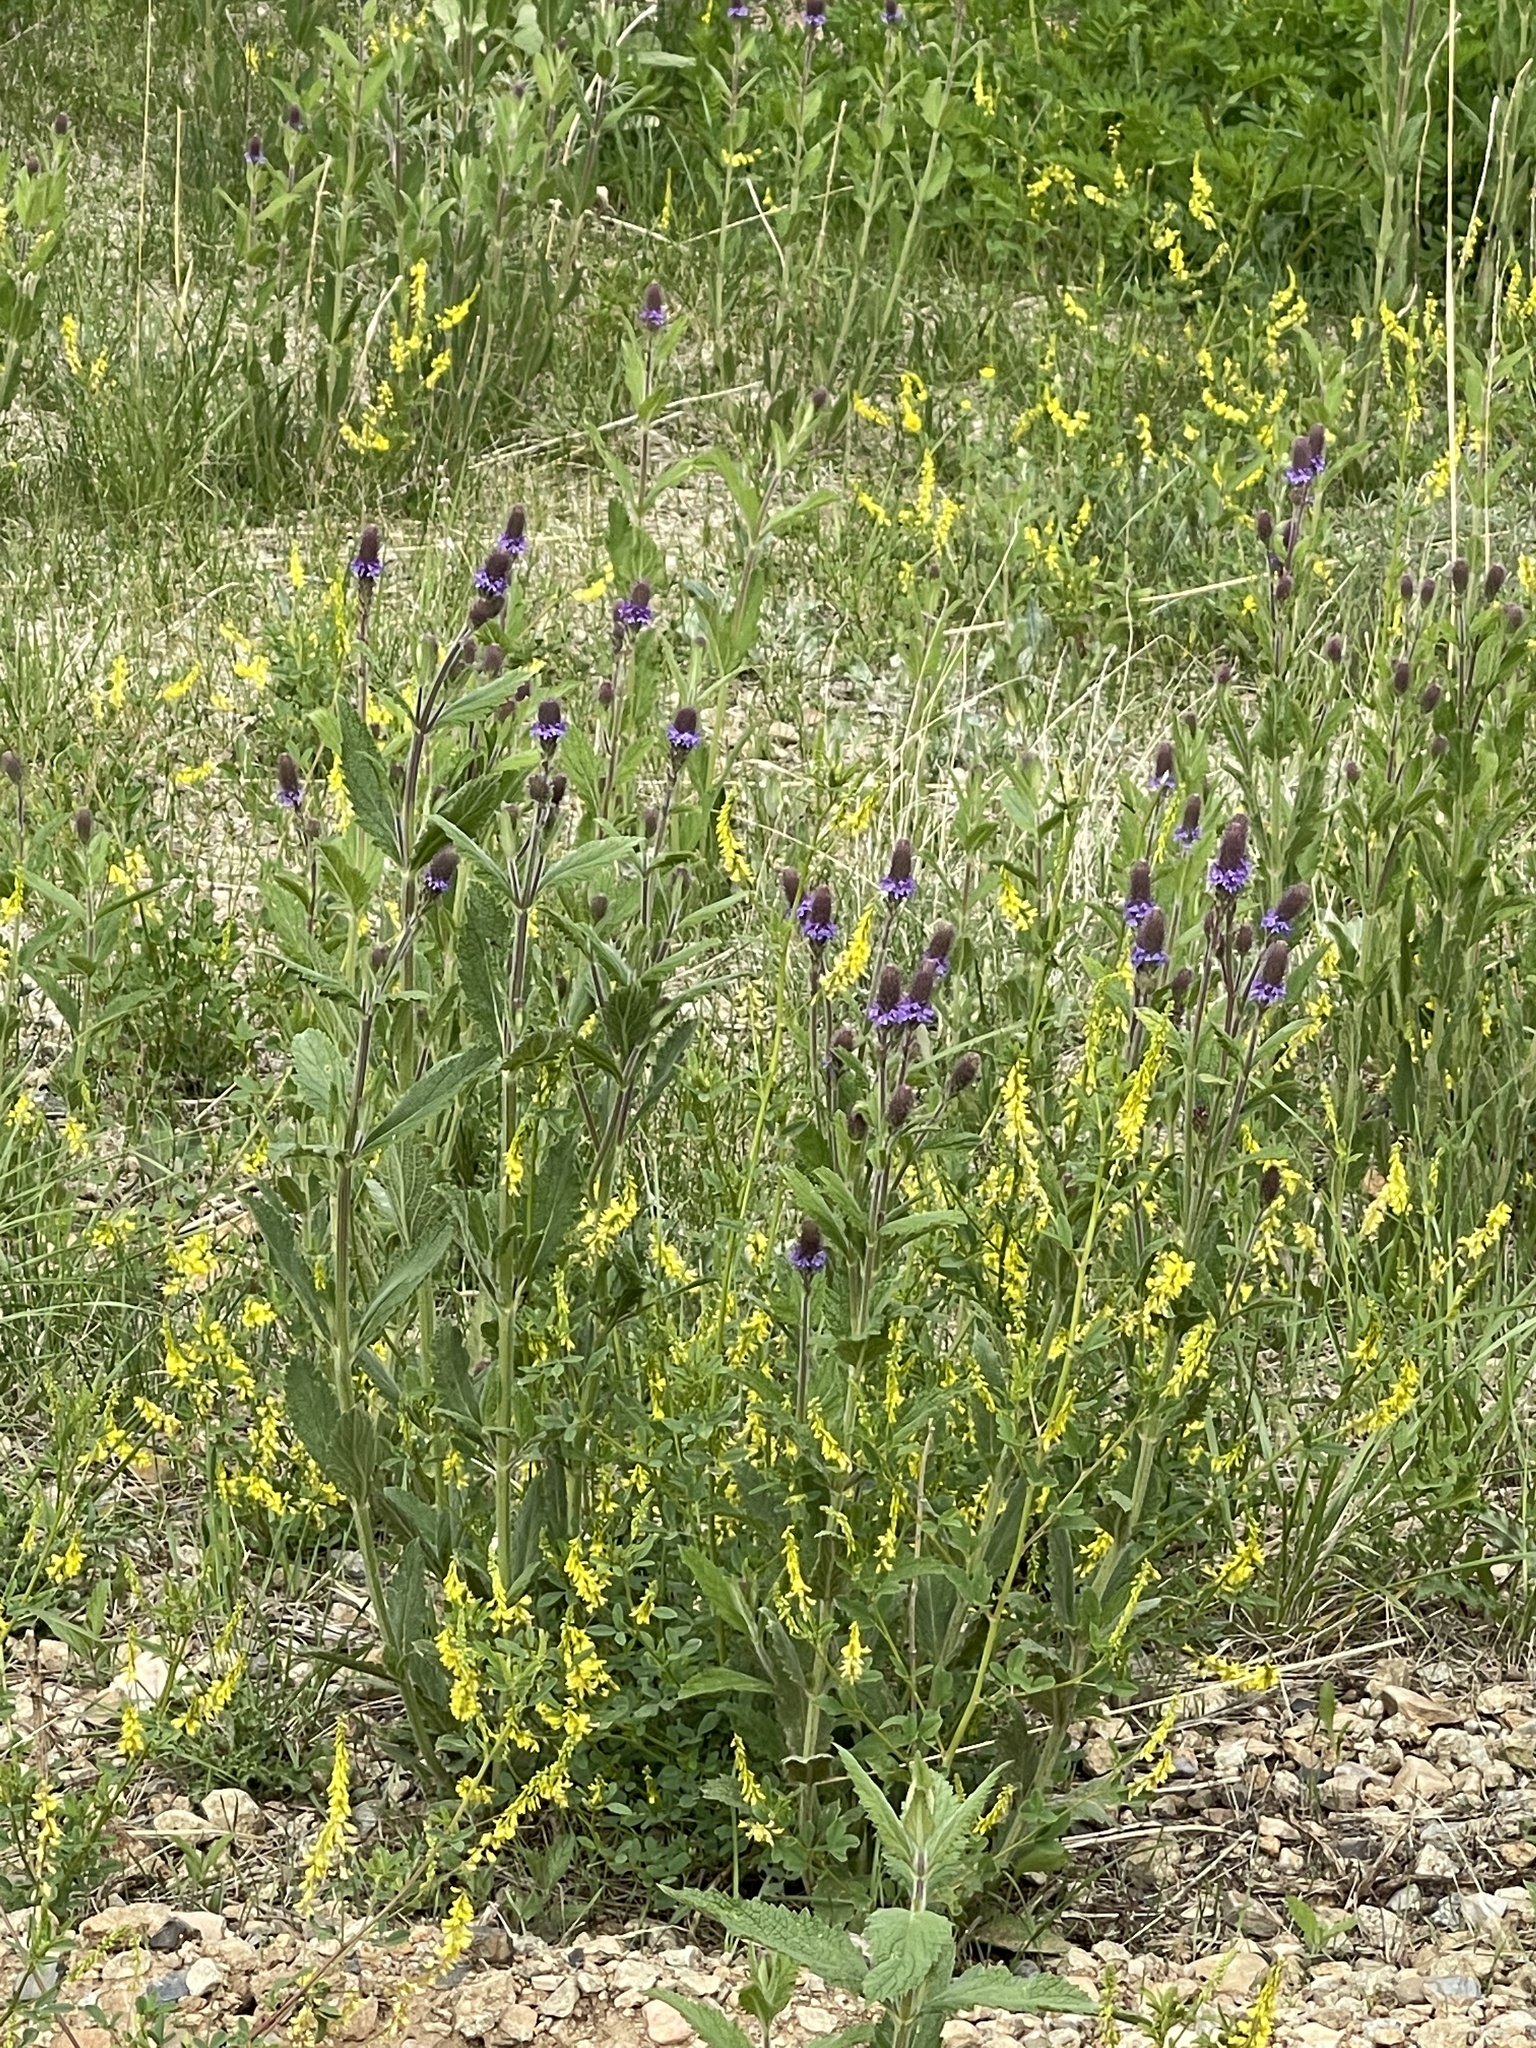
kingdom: Plantae
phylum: Tracheophyta
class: Magnoliopsida
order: Lamiales
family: Verbenaceae
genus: Verbena
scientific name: Verbena macdougalii
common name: New mexico vervain
